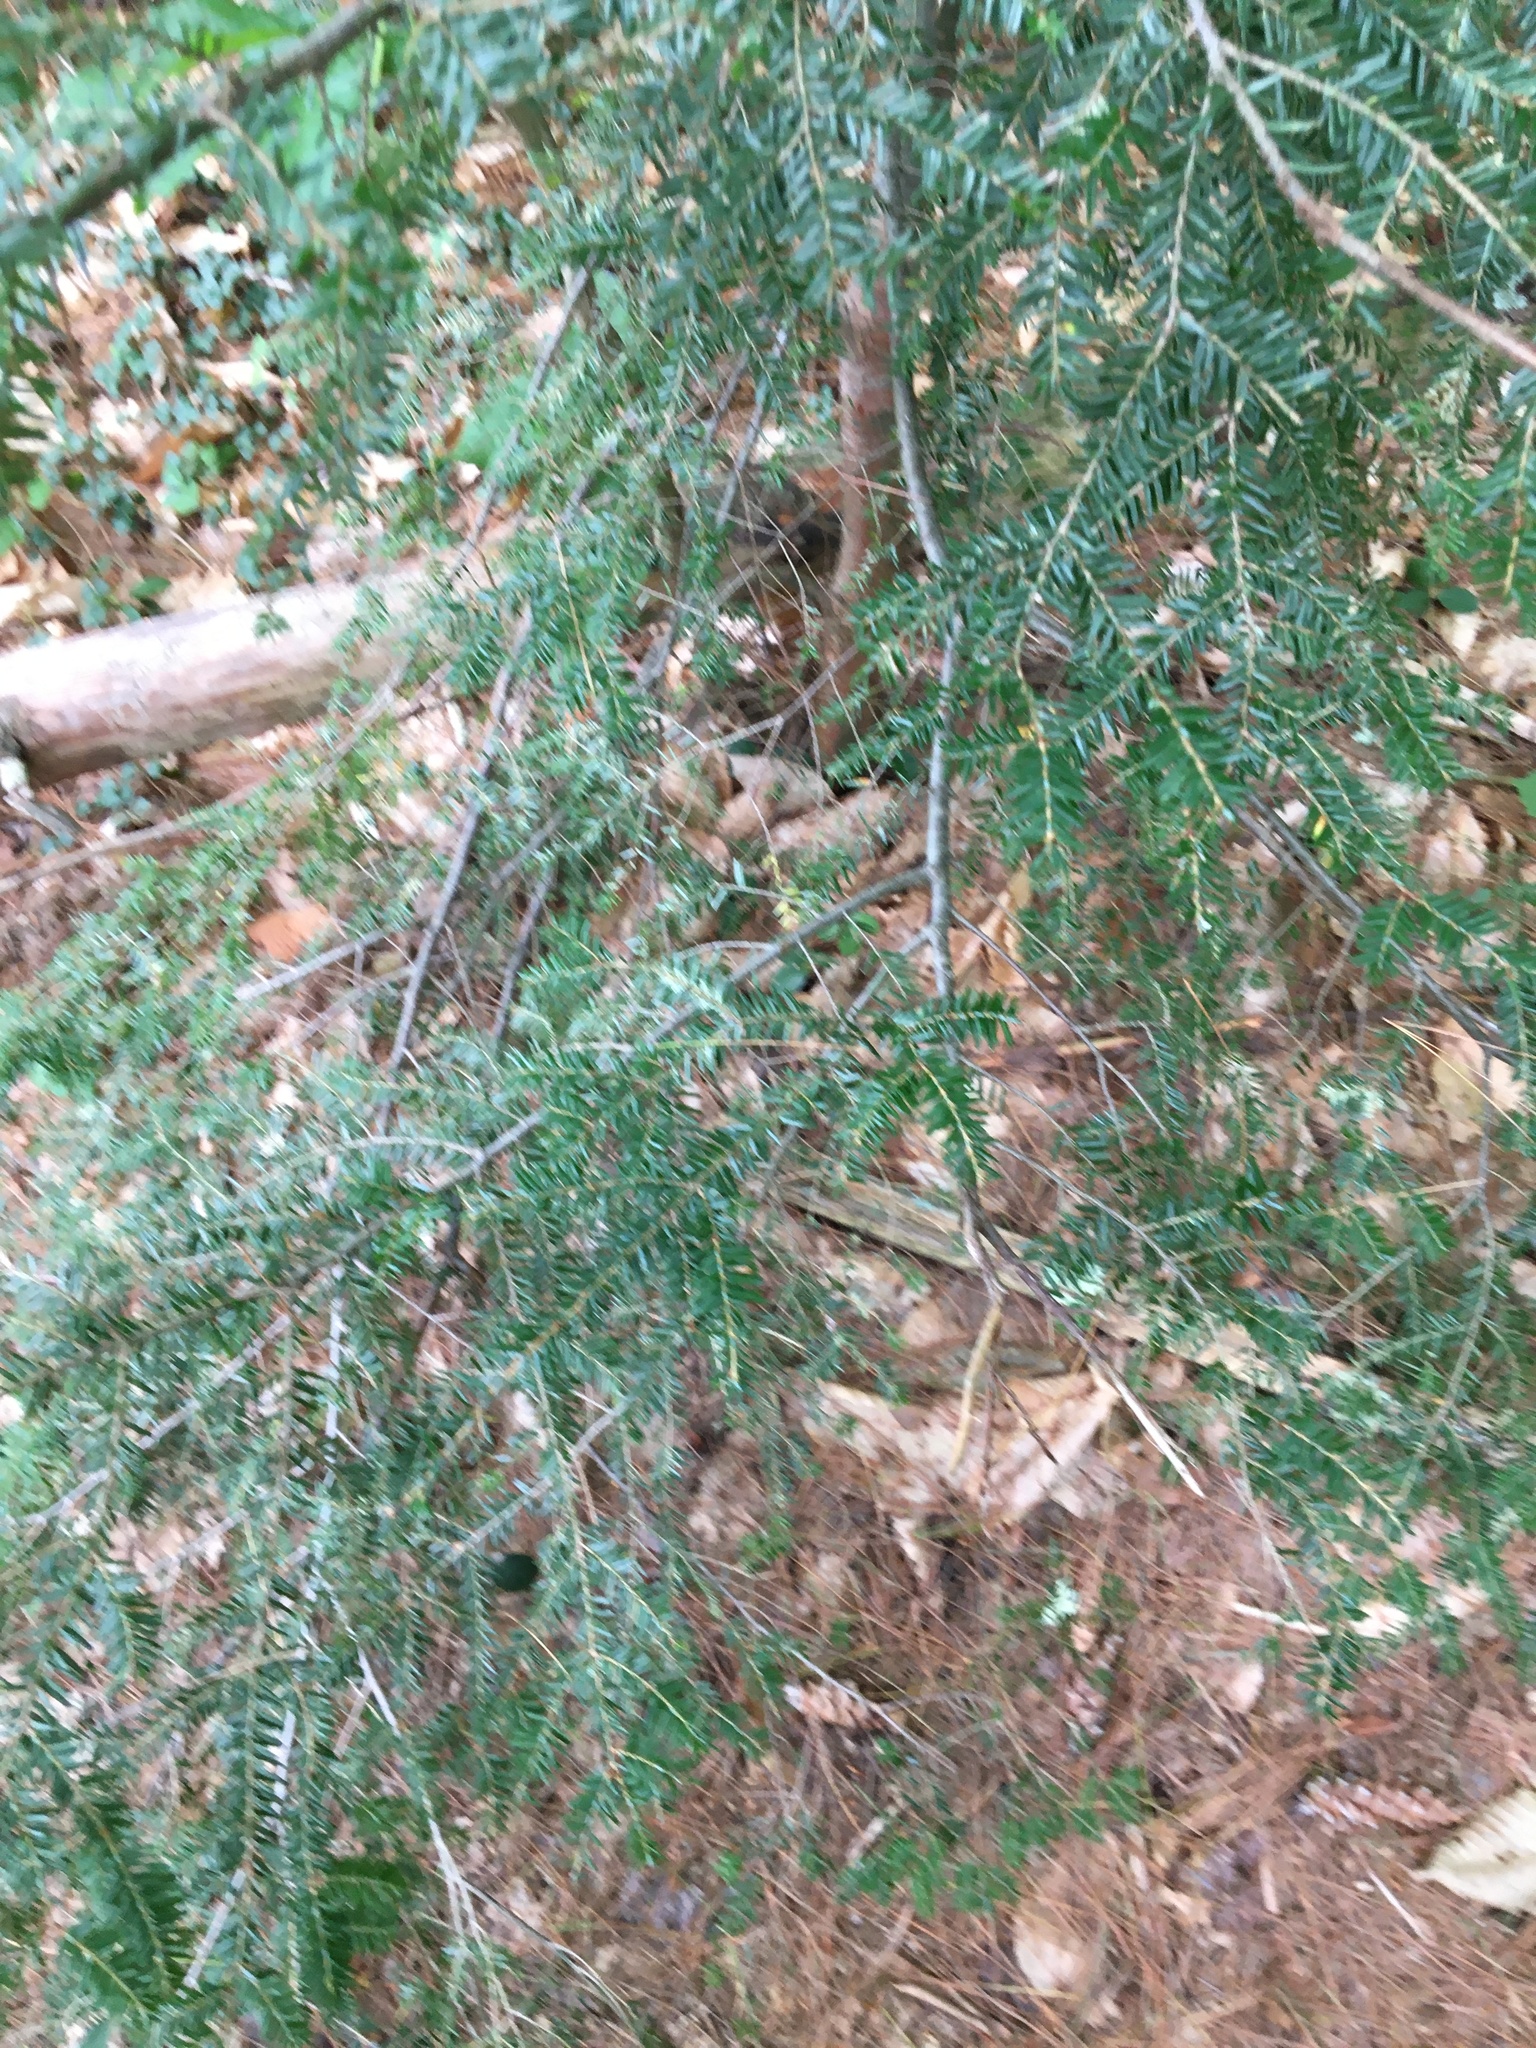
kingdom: Plantae
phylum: Tracheophyta
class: Pinopsida
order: Pinales
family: Pinaceae
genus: Tsuga
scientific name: Tsuga canadensis
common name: Eastern hemlock
